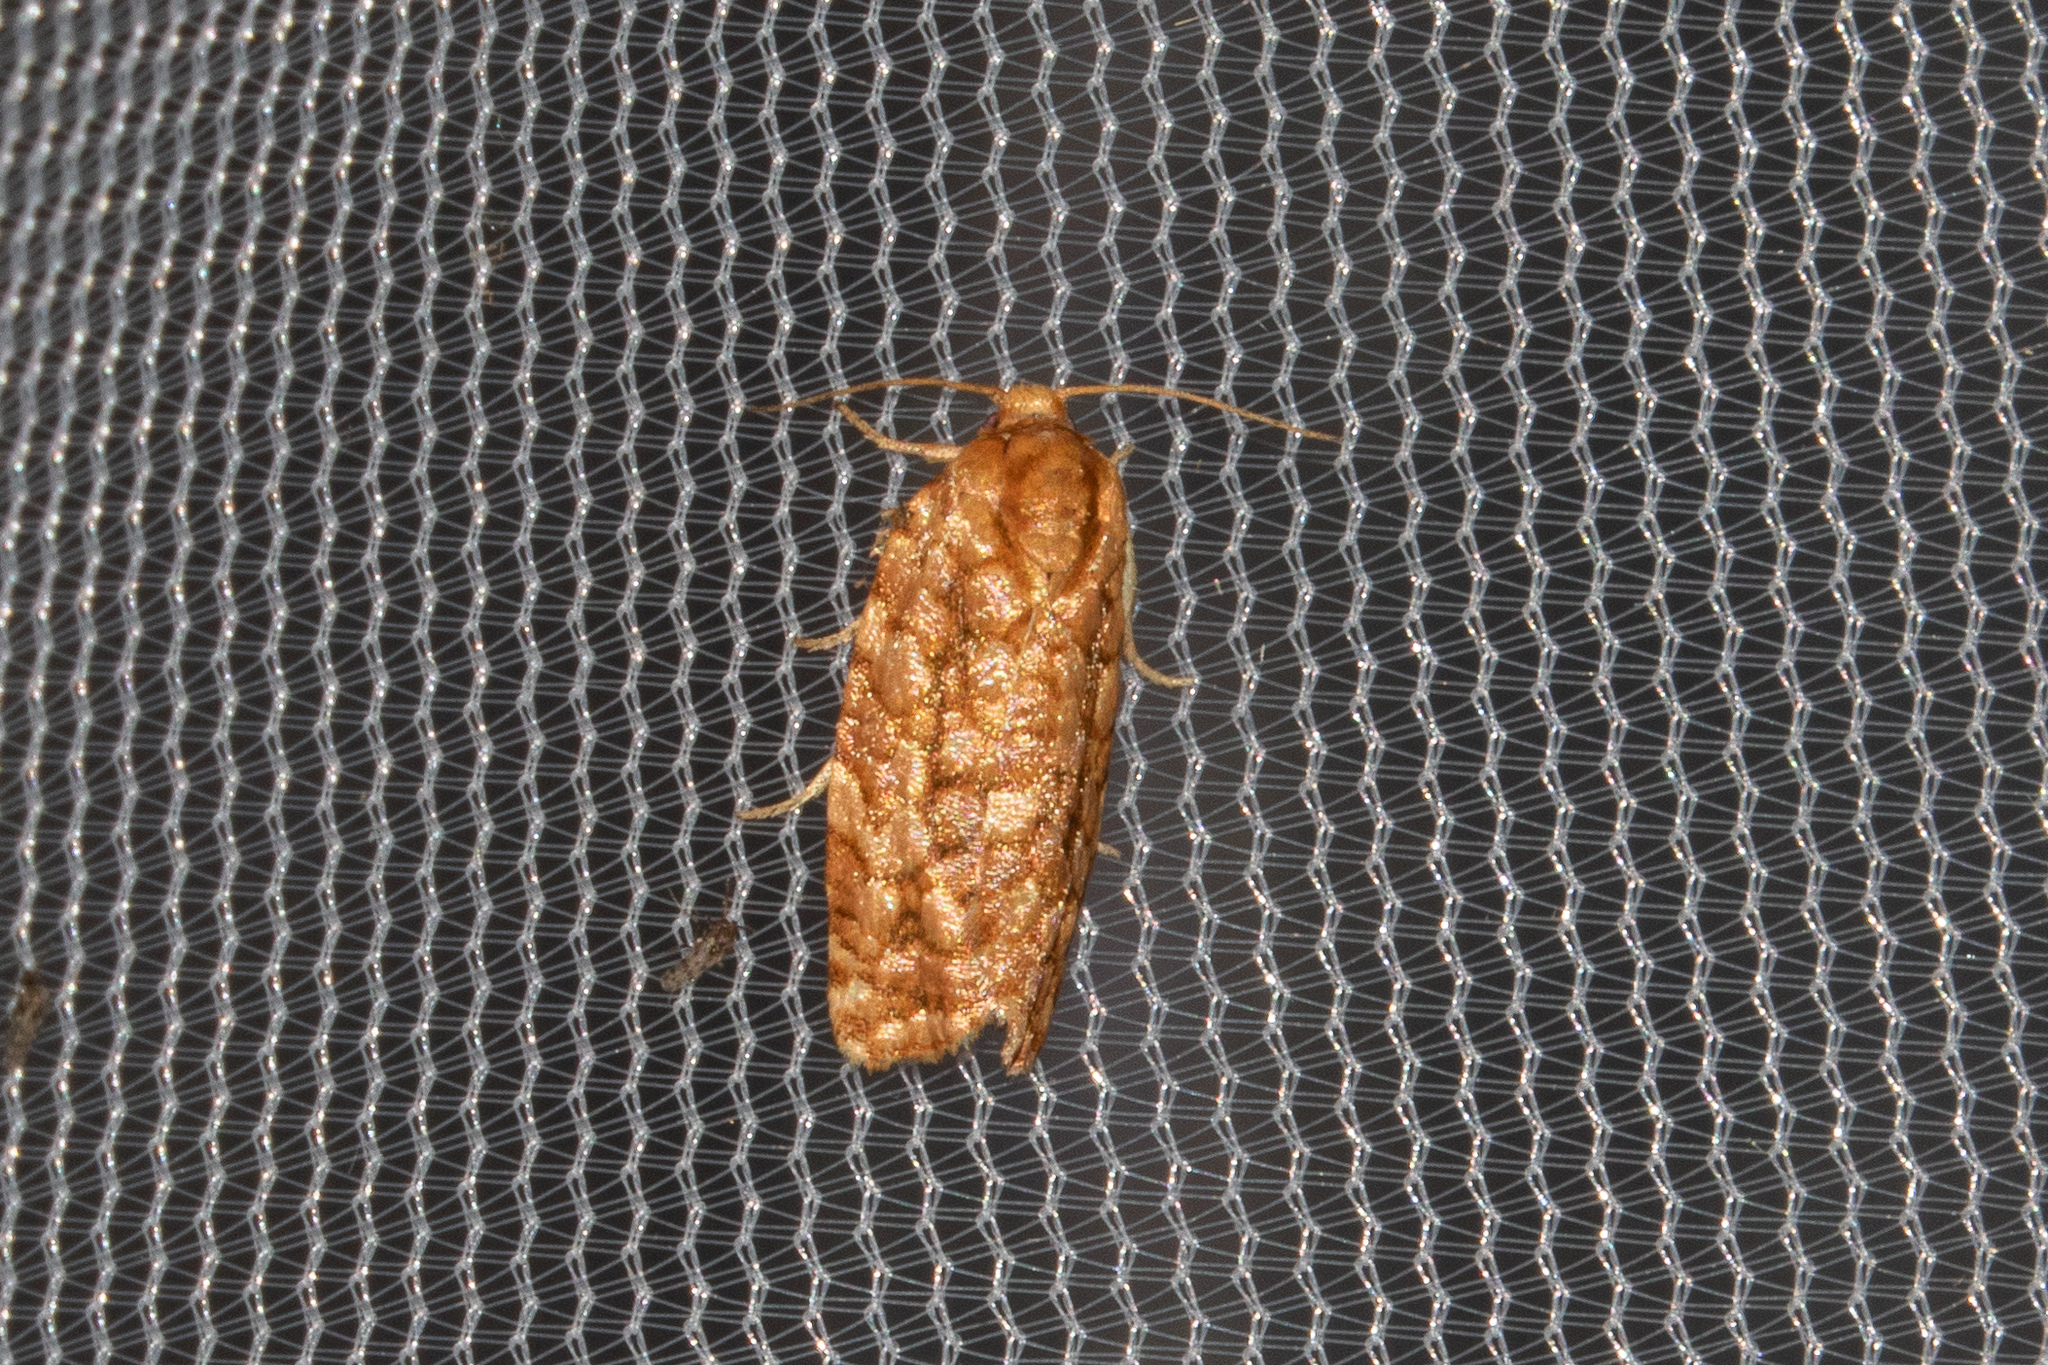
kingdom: Animalia
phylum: Arthropoda
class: Insecta
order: Lepidoptera
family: Tortricidae
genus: Choristoneura
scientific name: Choristoneura houstonana
